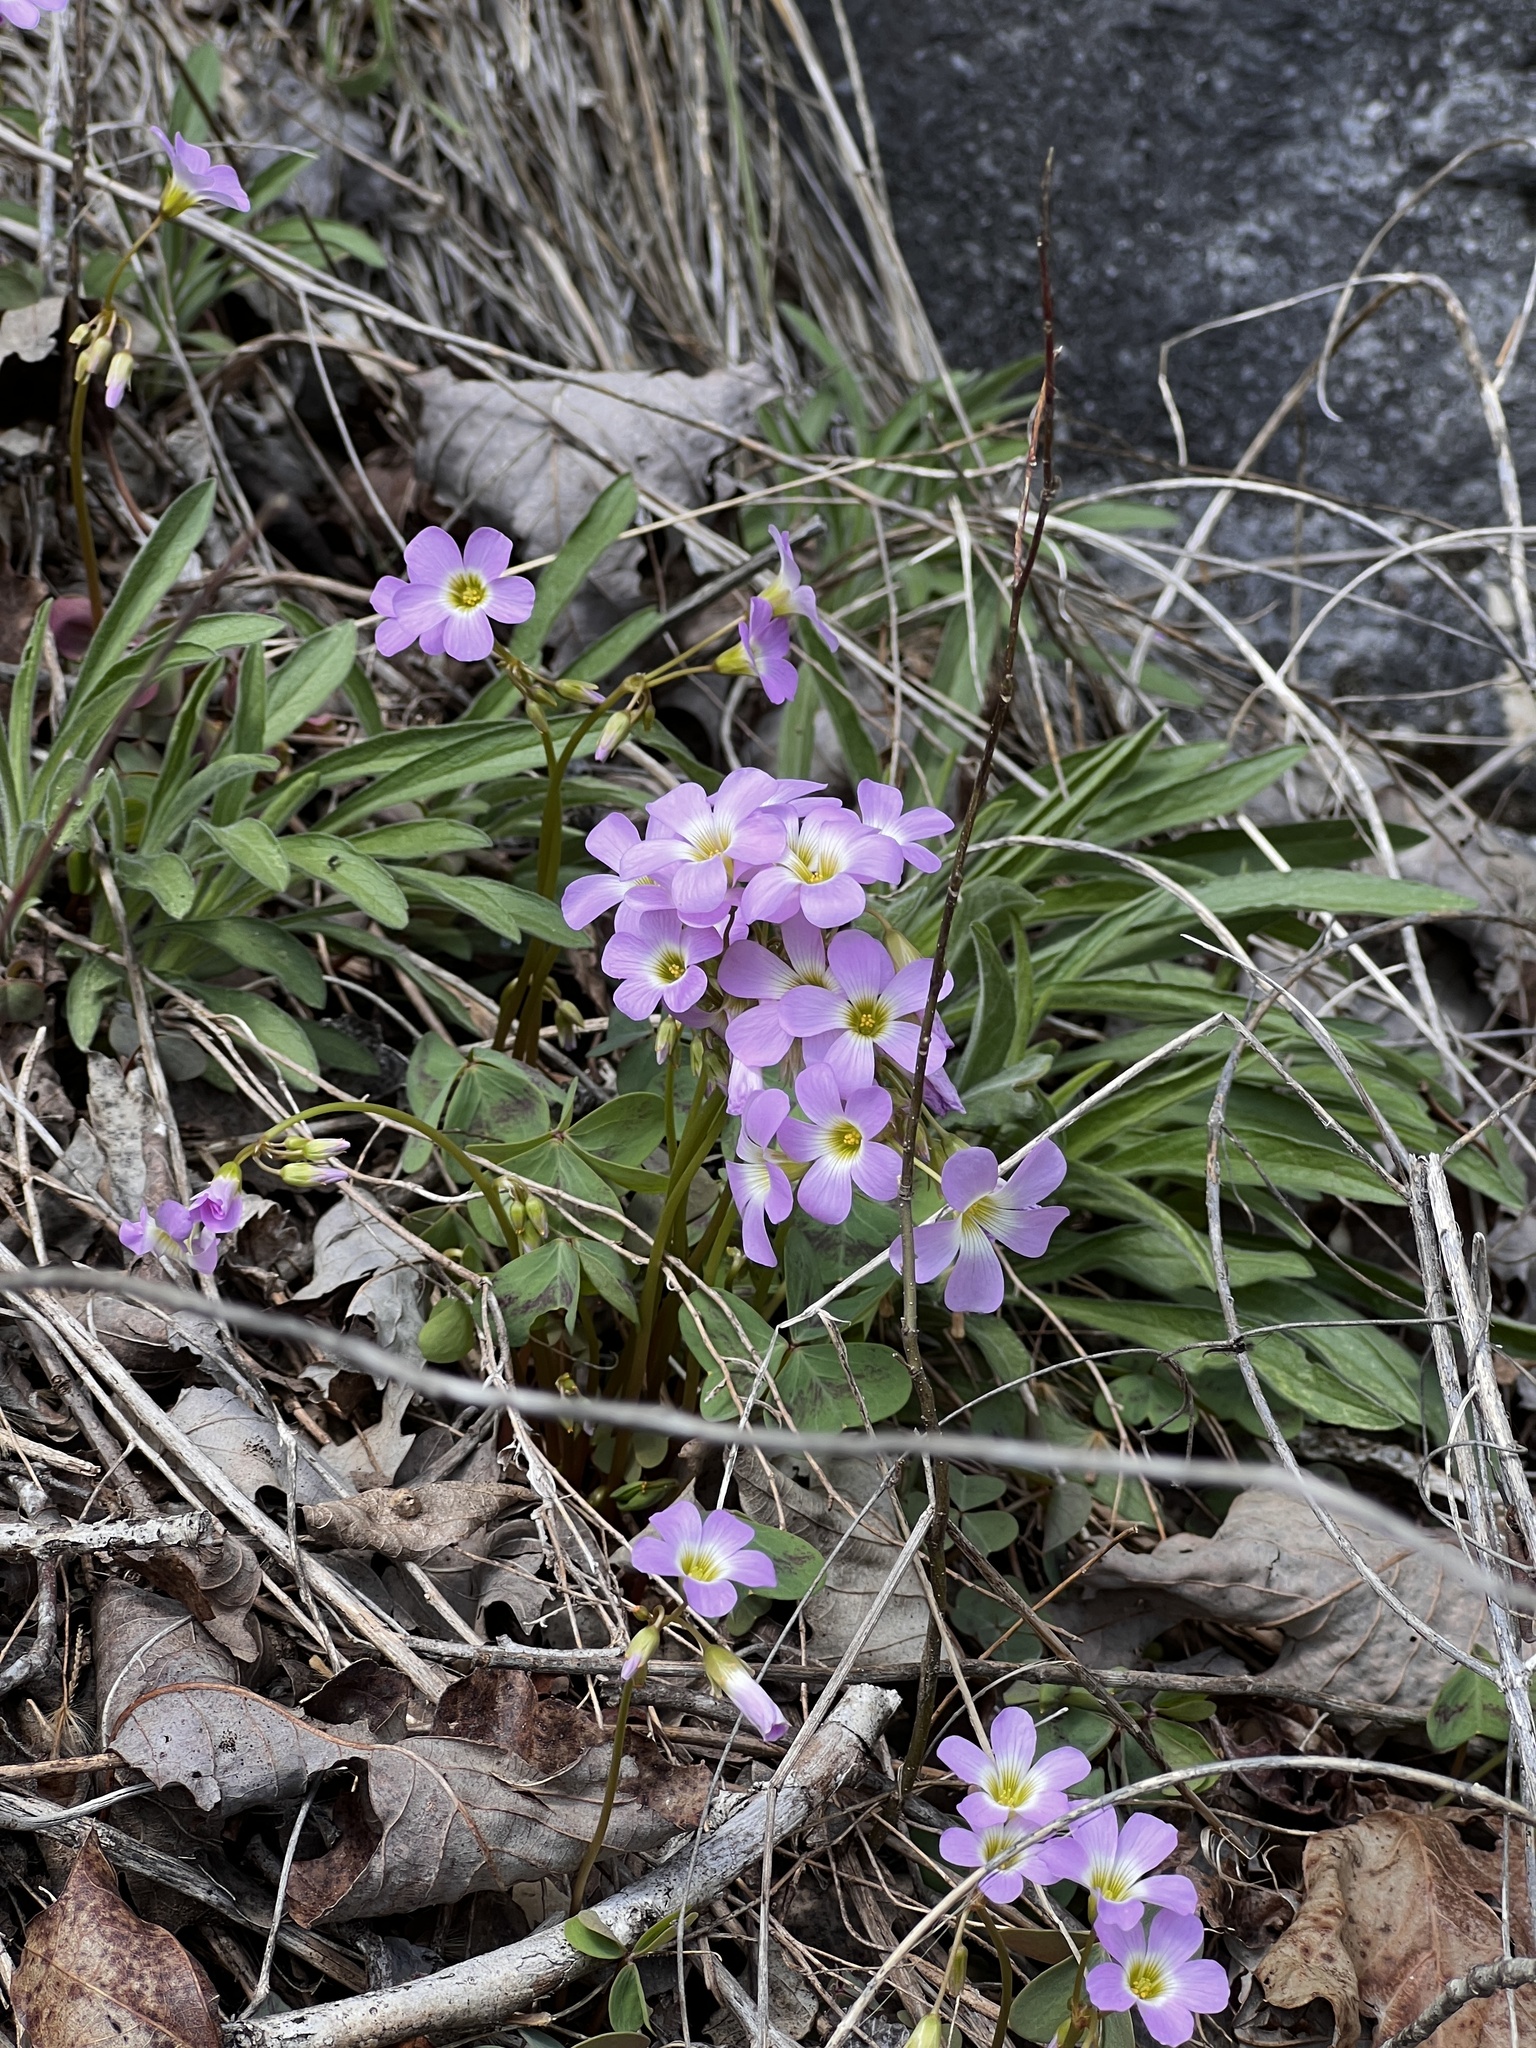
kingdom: Plantae
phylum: Tracheophyta
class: Magnoliopsida
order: Oxalidales
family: Oxalidaceae
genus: Oxalis
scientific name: Oxalis violacea
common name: Violet wood-sorrel
